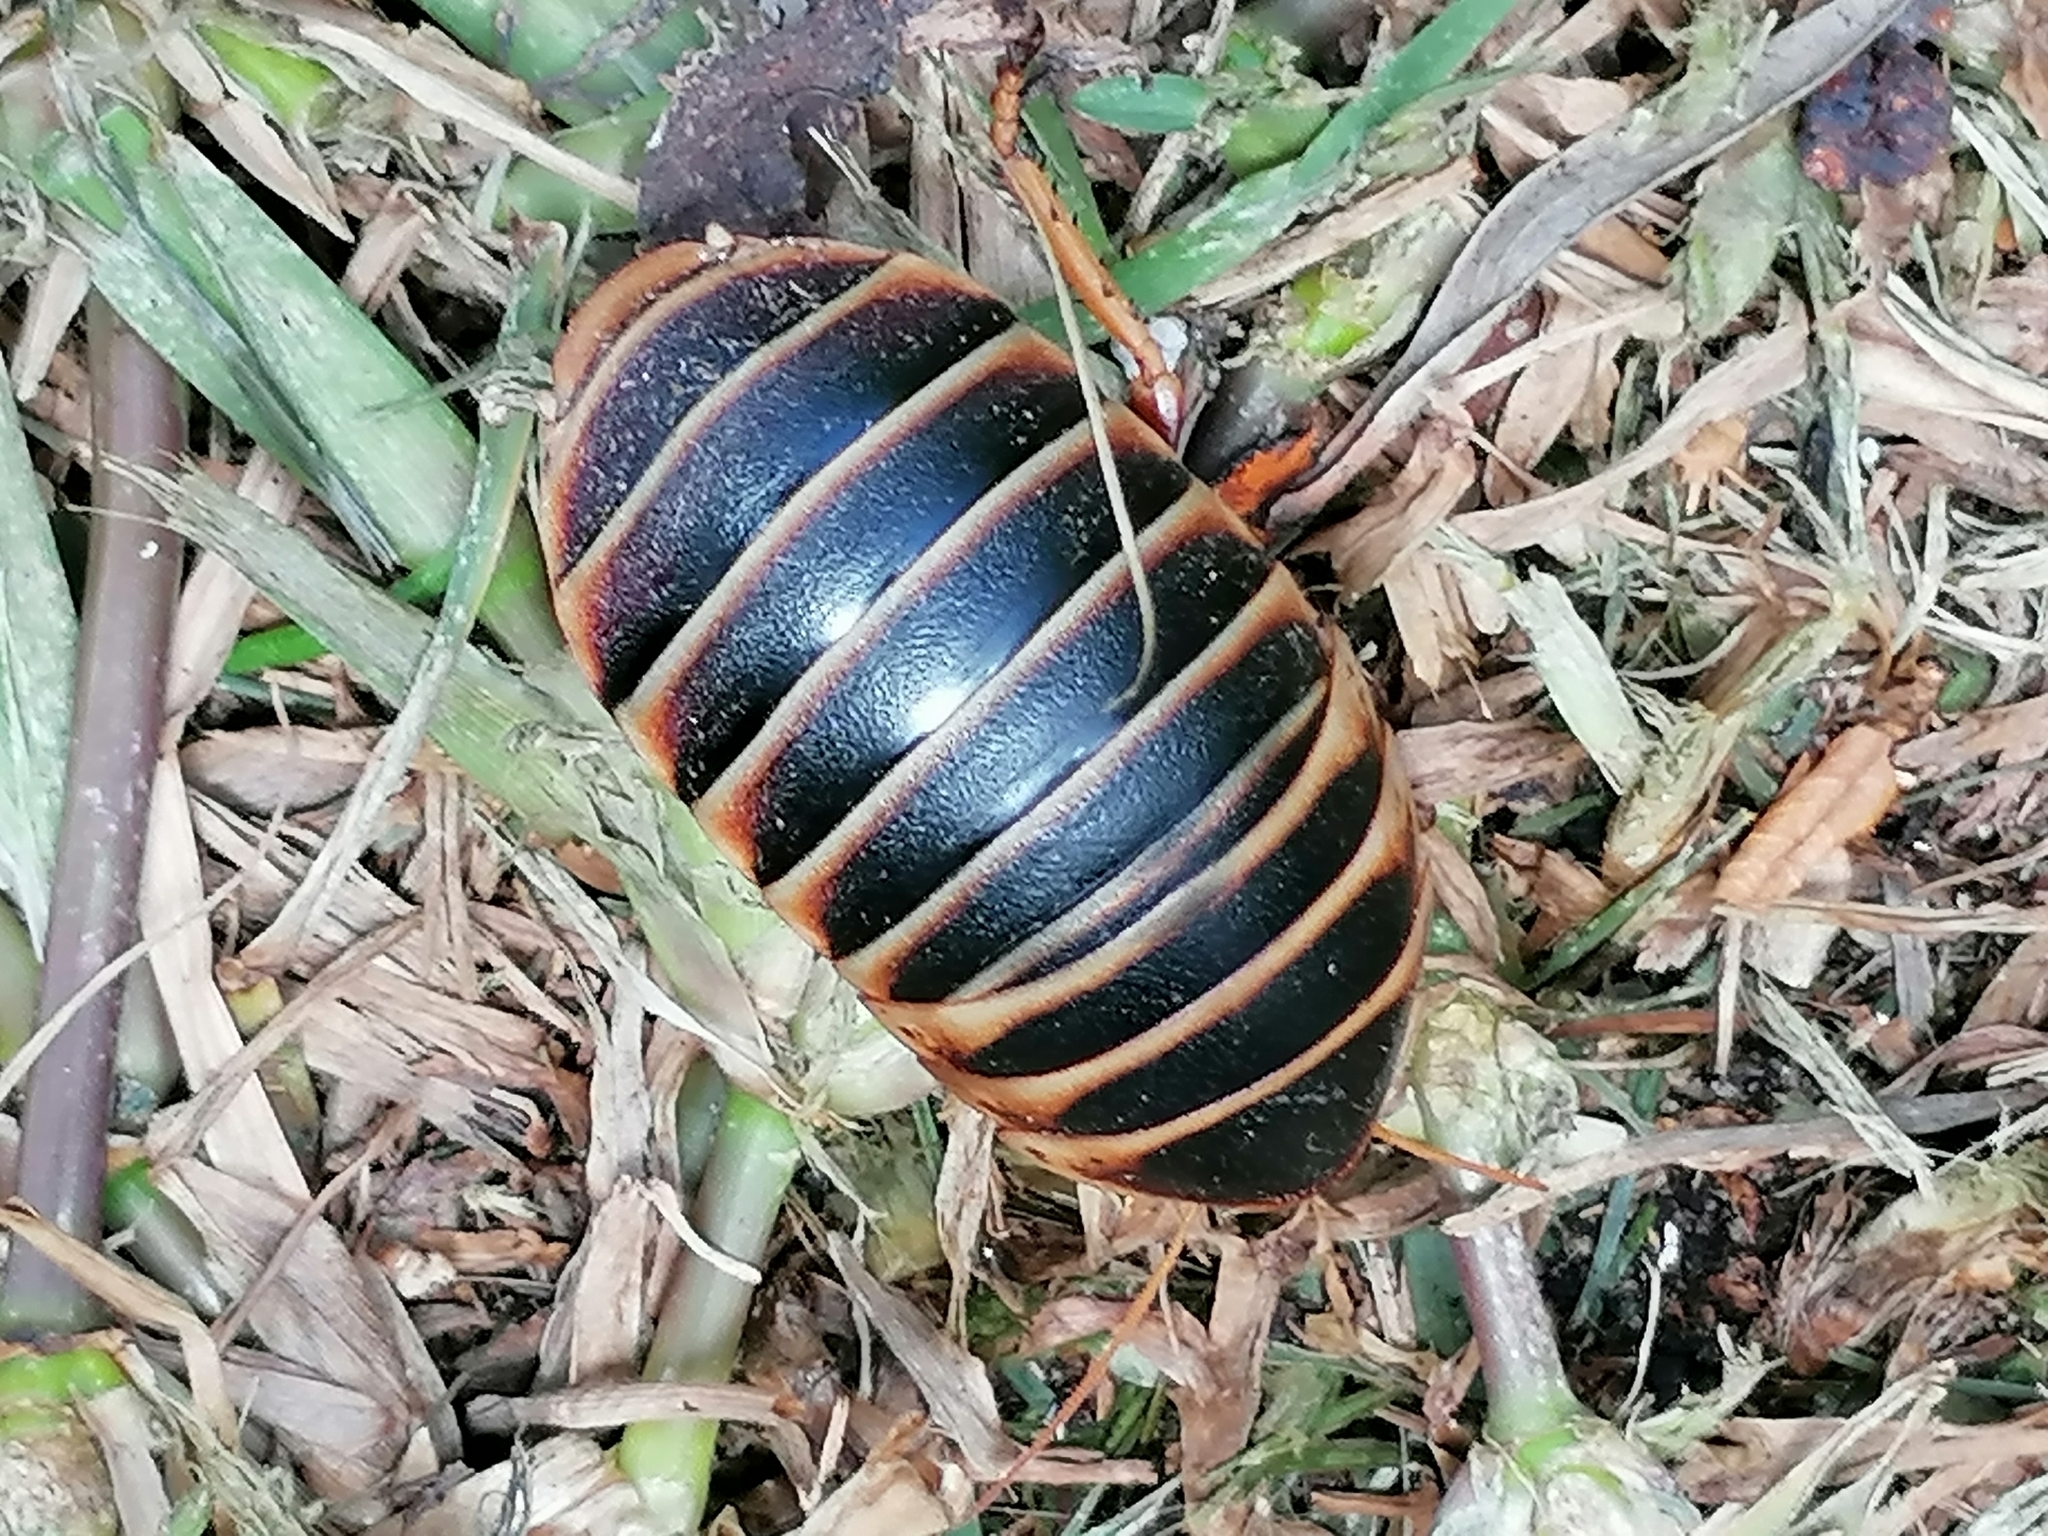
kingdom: Animalia
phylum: Arthropoda
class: Insecta
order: Blattodea
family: Blaberidae
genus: Aptera
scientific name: Aptera fusca
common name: Cape mountain cockroach
